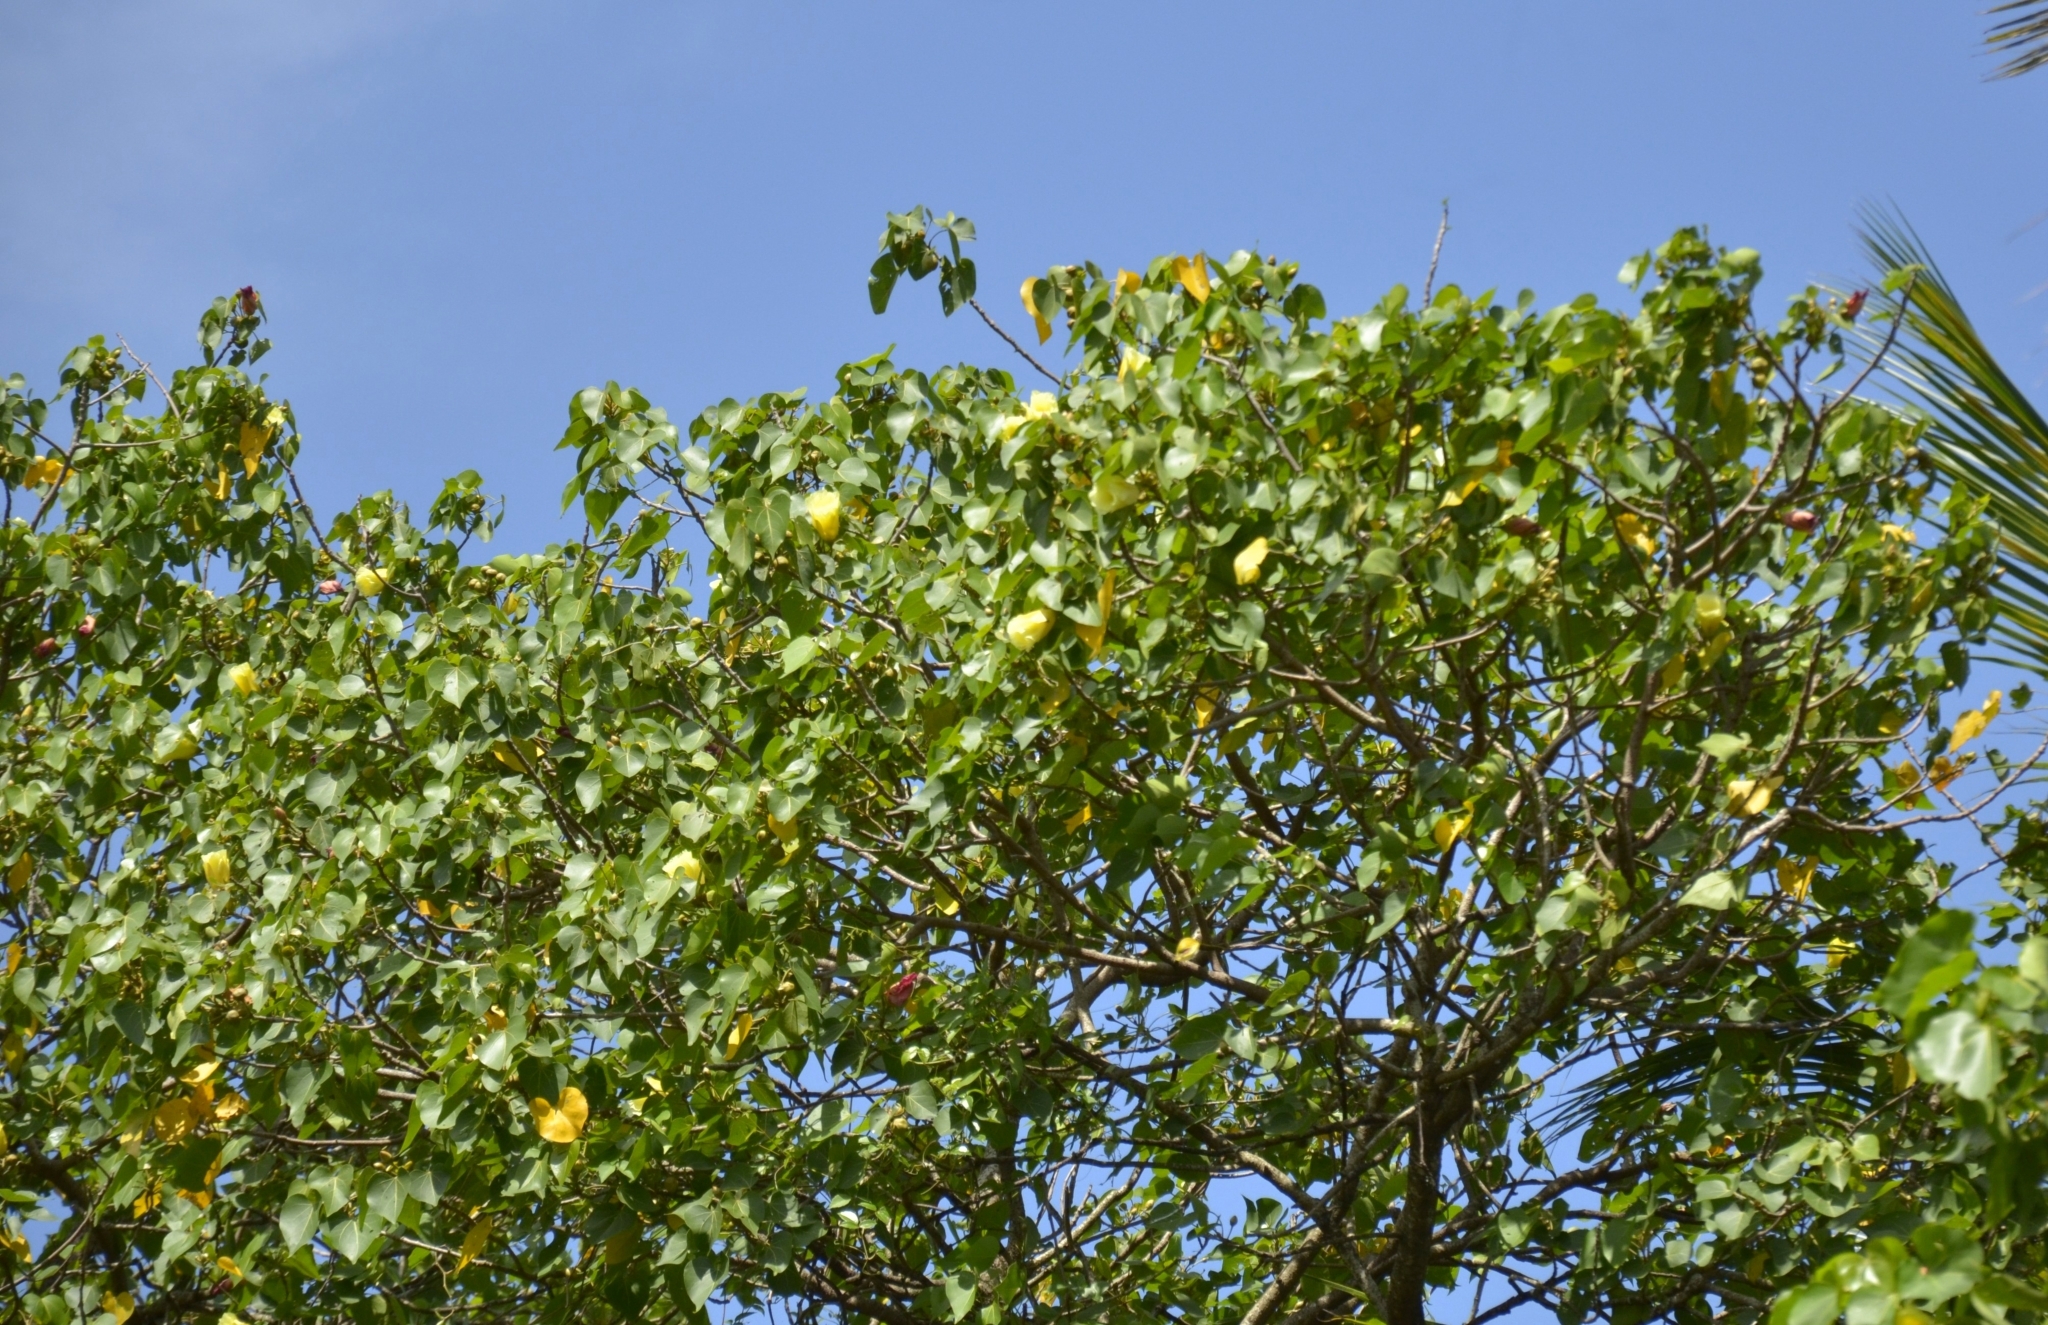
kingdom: Plantae
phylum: Tracheophyta
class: Magnoliopsida
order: Malvales
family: Malvaceae
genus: Thespesia
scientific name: Thespesia populnea
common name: Seaside mahoe
